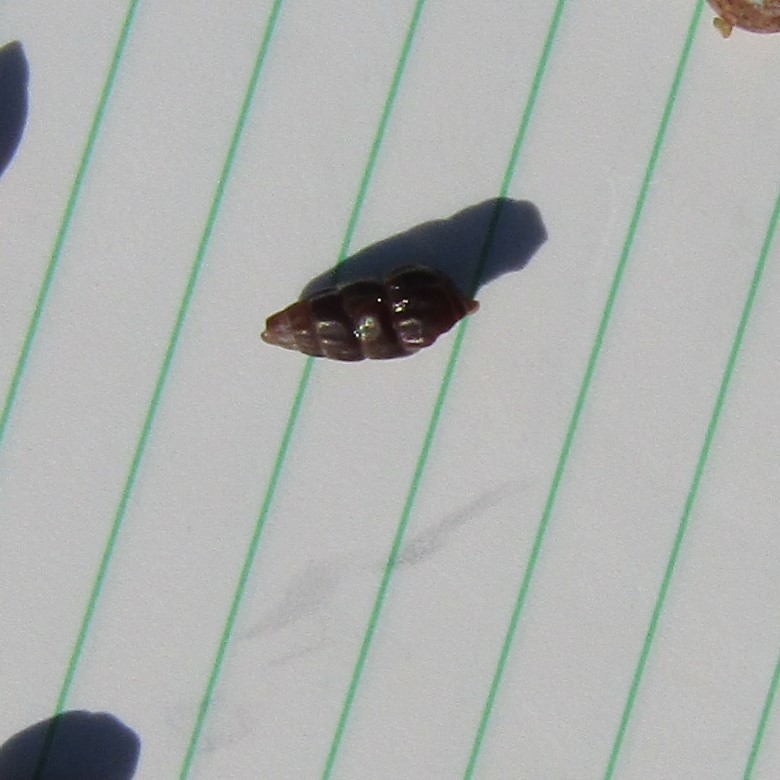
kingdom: Animalia
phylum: Mollusca
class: Gastropoda
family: Batillariidae
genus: Zeacumantus
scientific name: Zeacumantus subcarinatus
